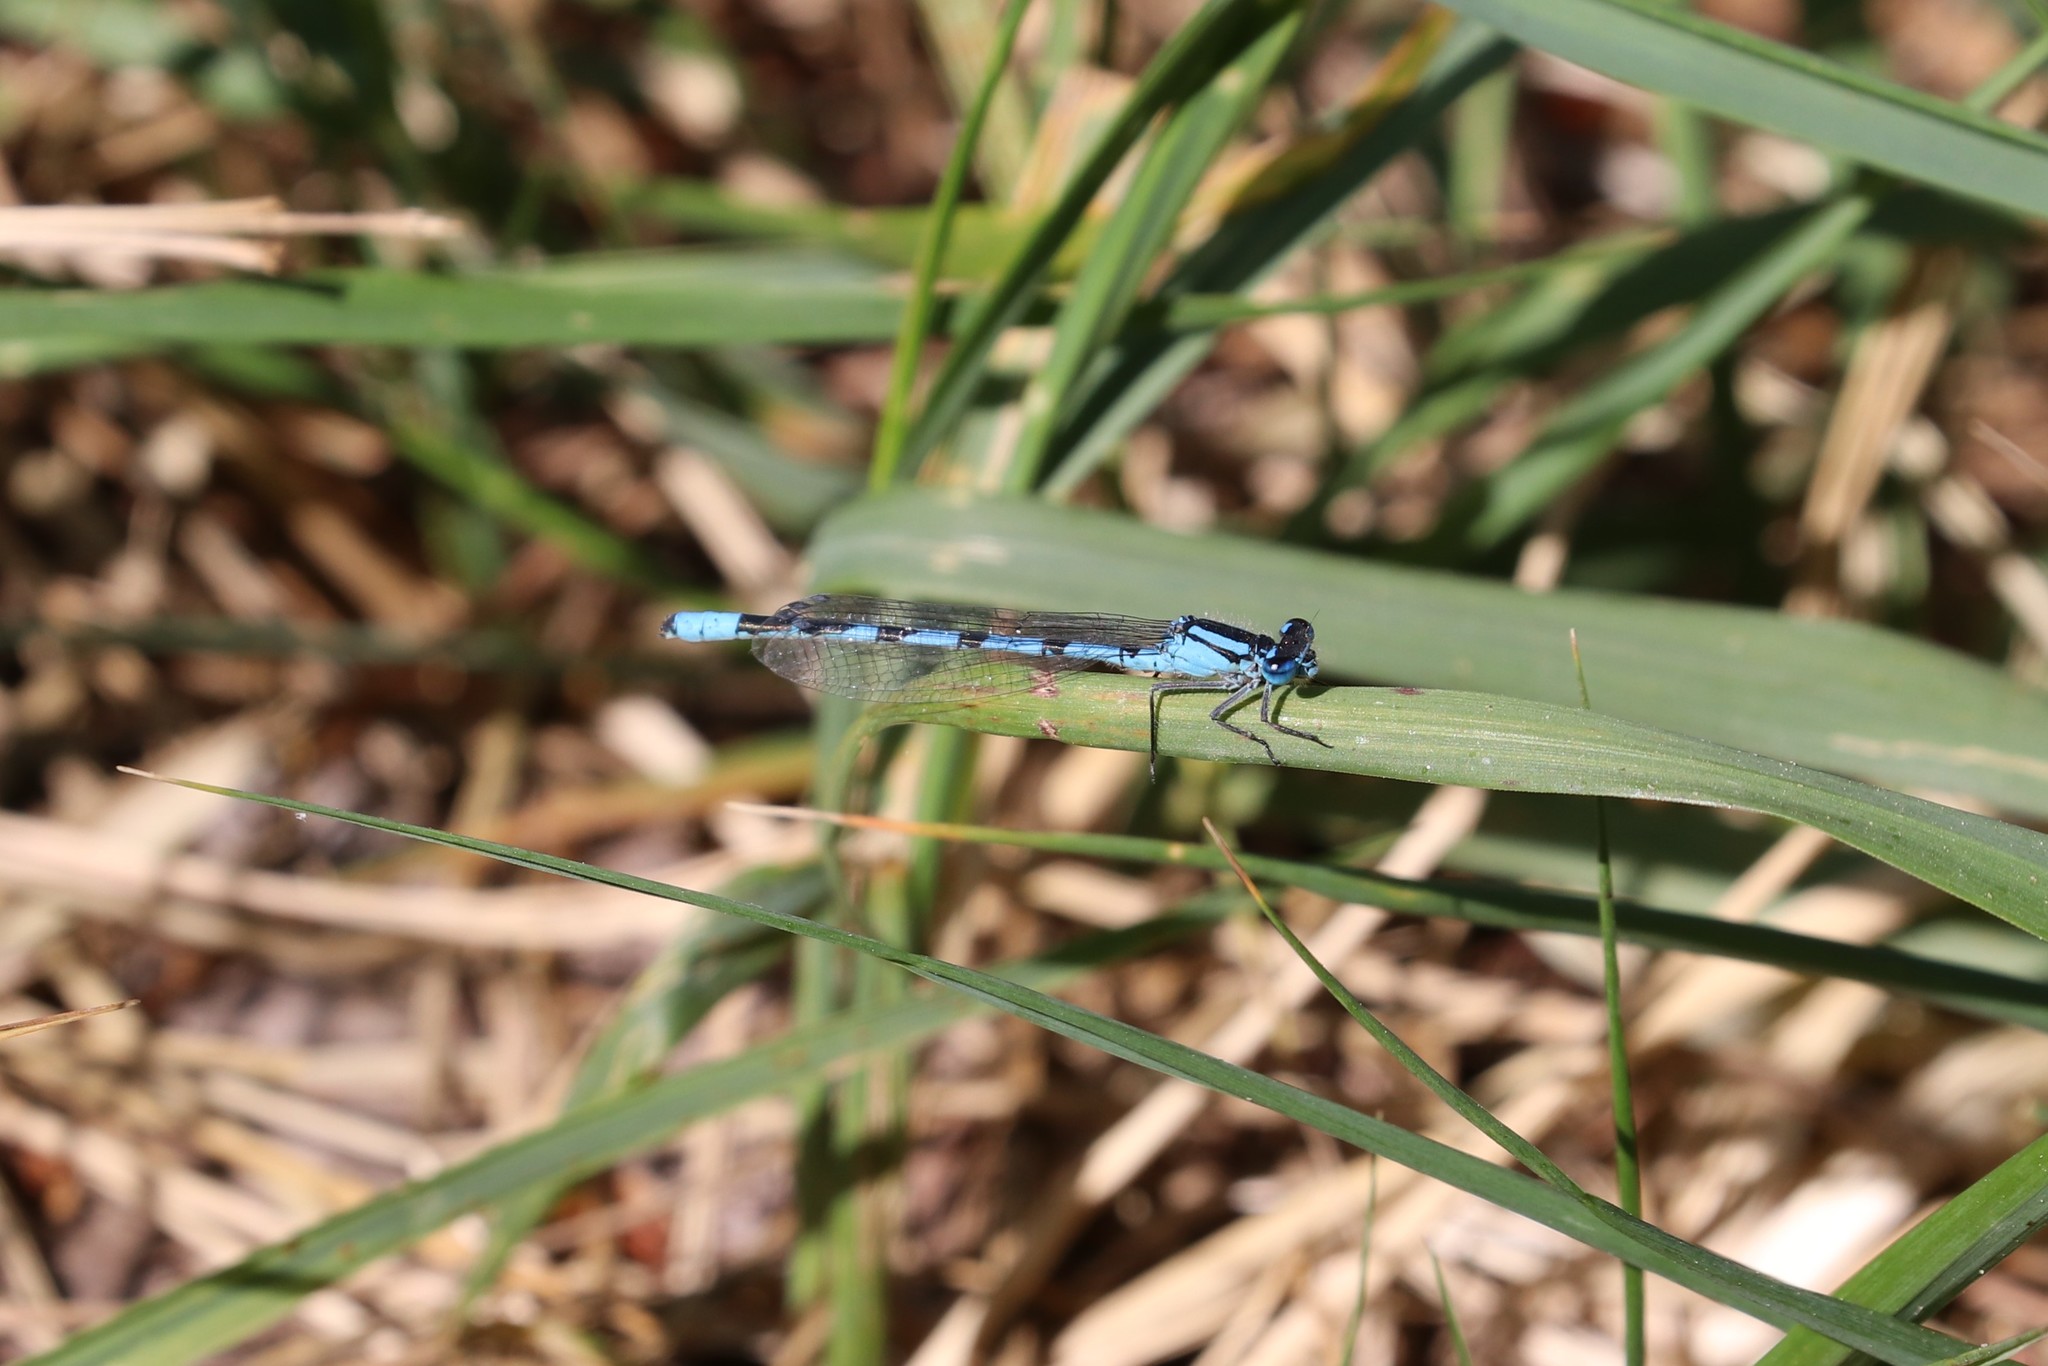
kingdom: Animalia
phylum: Arthropoda
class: Insecta
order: Odonata
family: Coenagrionidae
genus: Enallagma
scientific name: Enallagma cyathigerum
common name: Common blue damselfly
